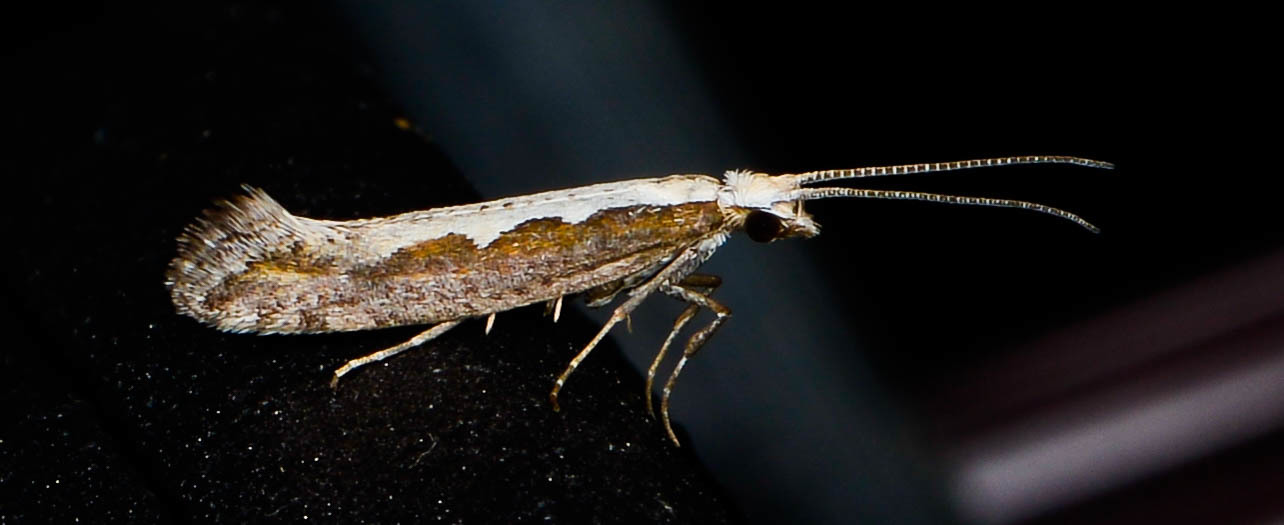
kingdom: Animalia
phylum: Arthropoda
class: Insecta
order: Lepidoptera
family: Plutellidae
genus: Plutella
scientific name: Plutella xylostella
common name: Diamond-back moth
